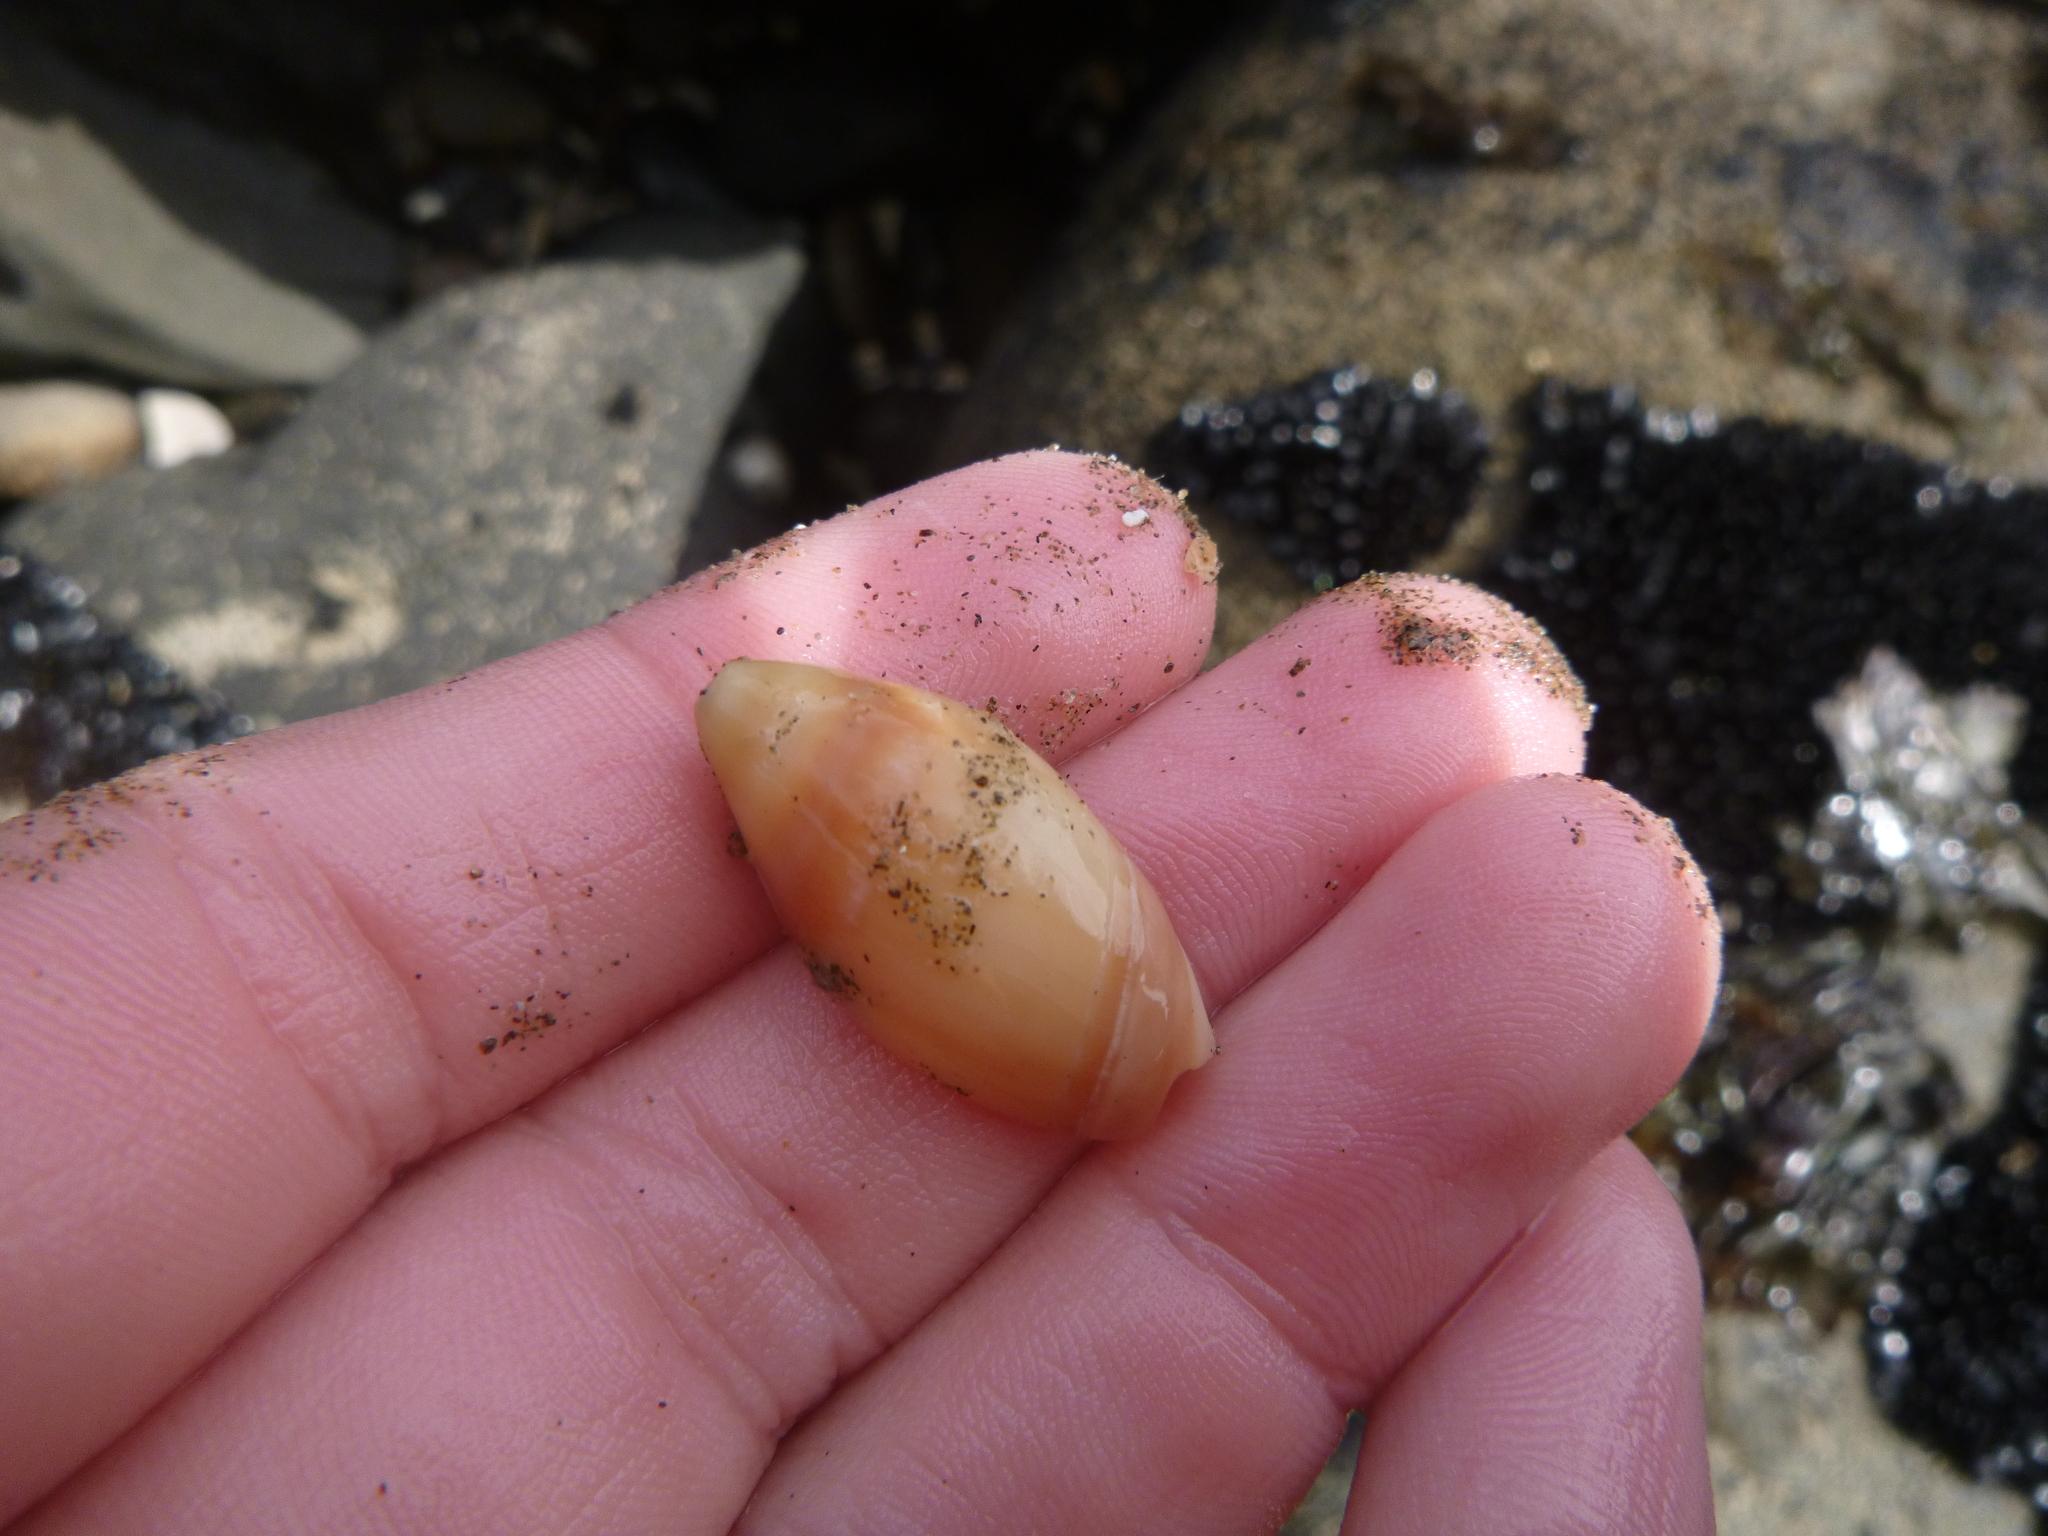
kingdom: Animalia
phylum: Mollusca
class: Gastropoda
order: Neogastropoda
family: Ancillariidae
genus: Amalda
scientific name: Amalda australis
